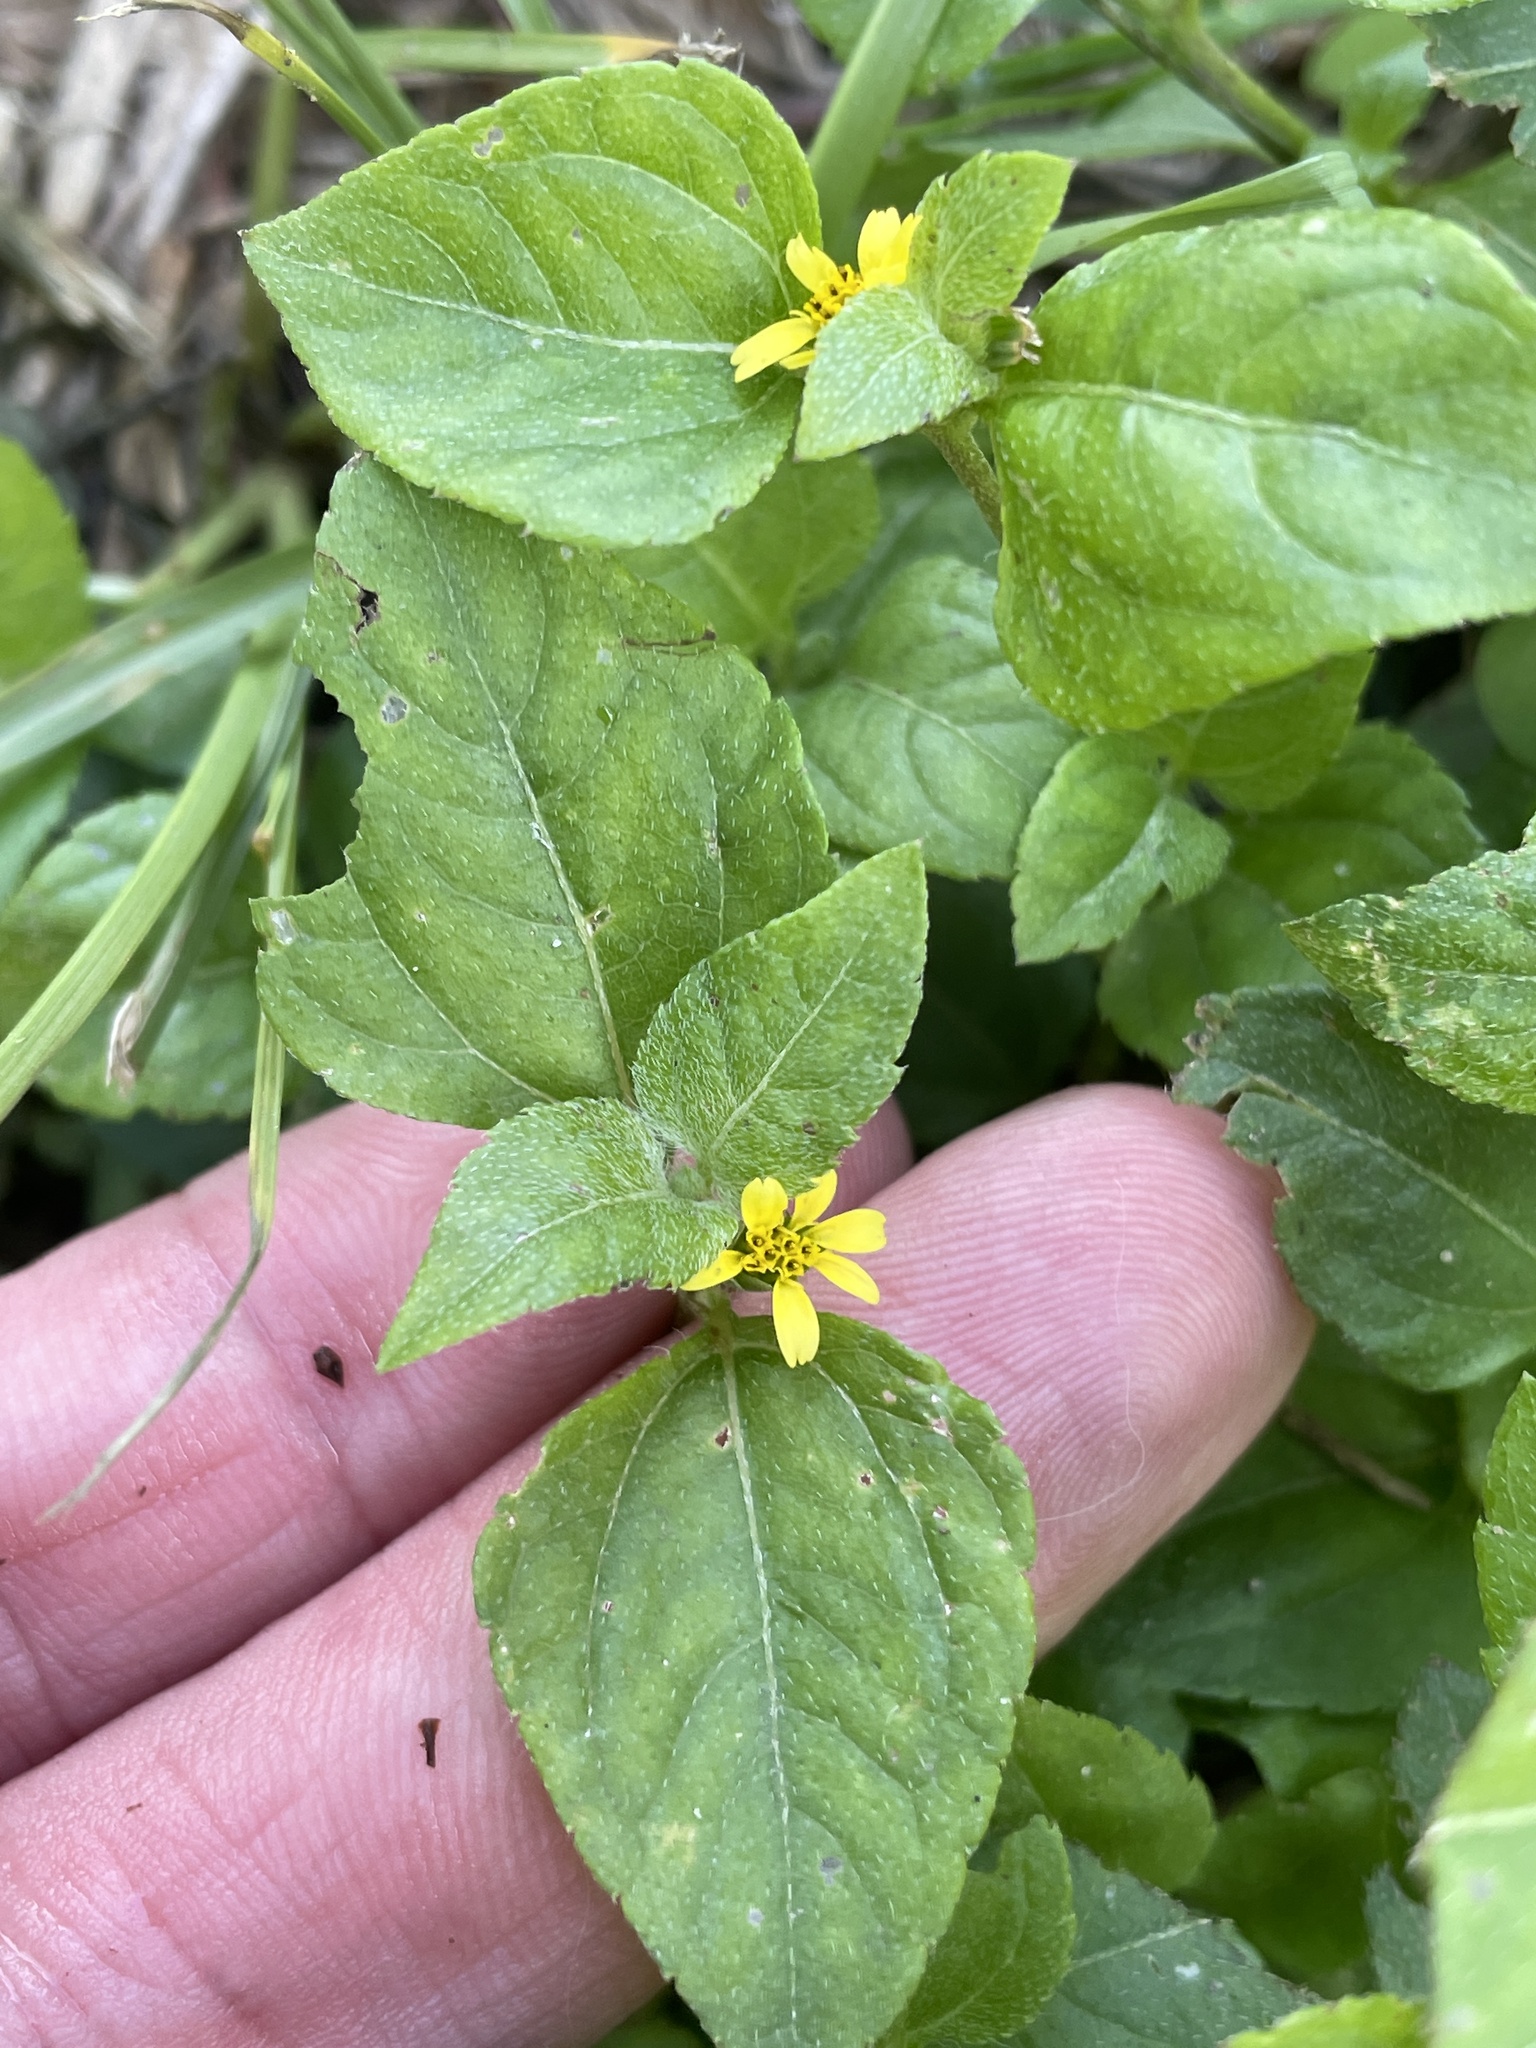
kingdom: Plantae
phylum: Tracheophyta
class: Magnoliopsida
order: Asterales
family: Asteraceae
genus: Calyptocarpus
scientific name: Calyptocarpus vialis
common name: Straggler daisy
